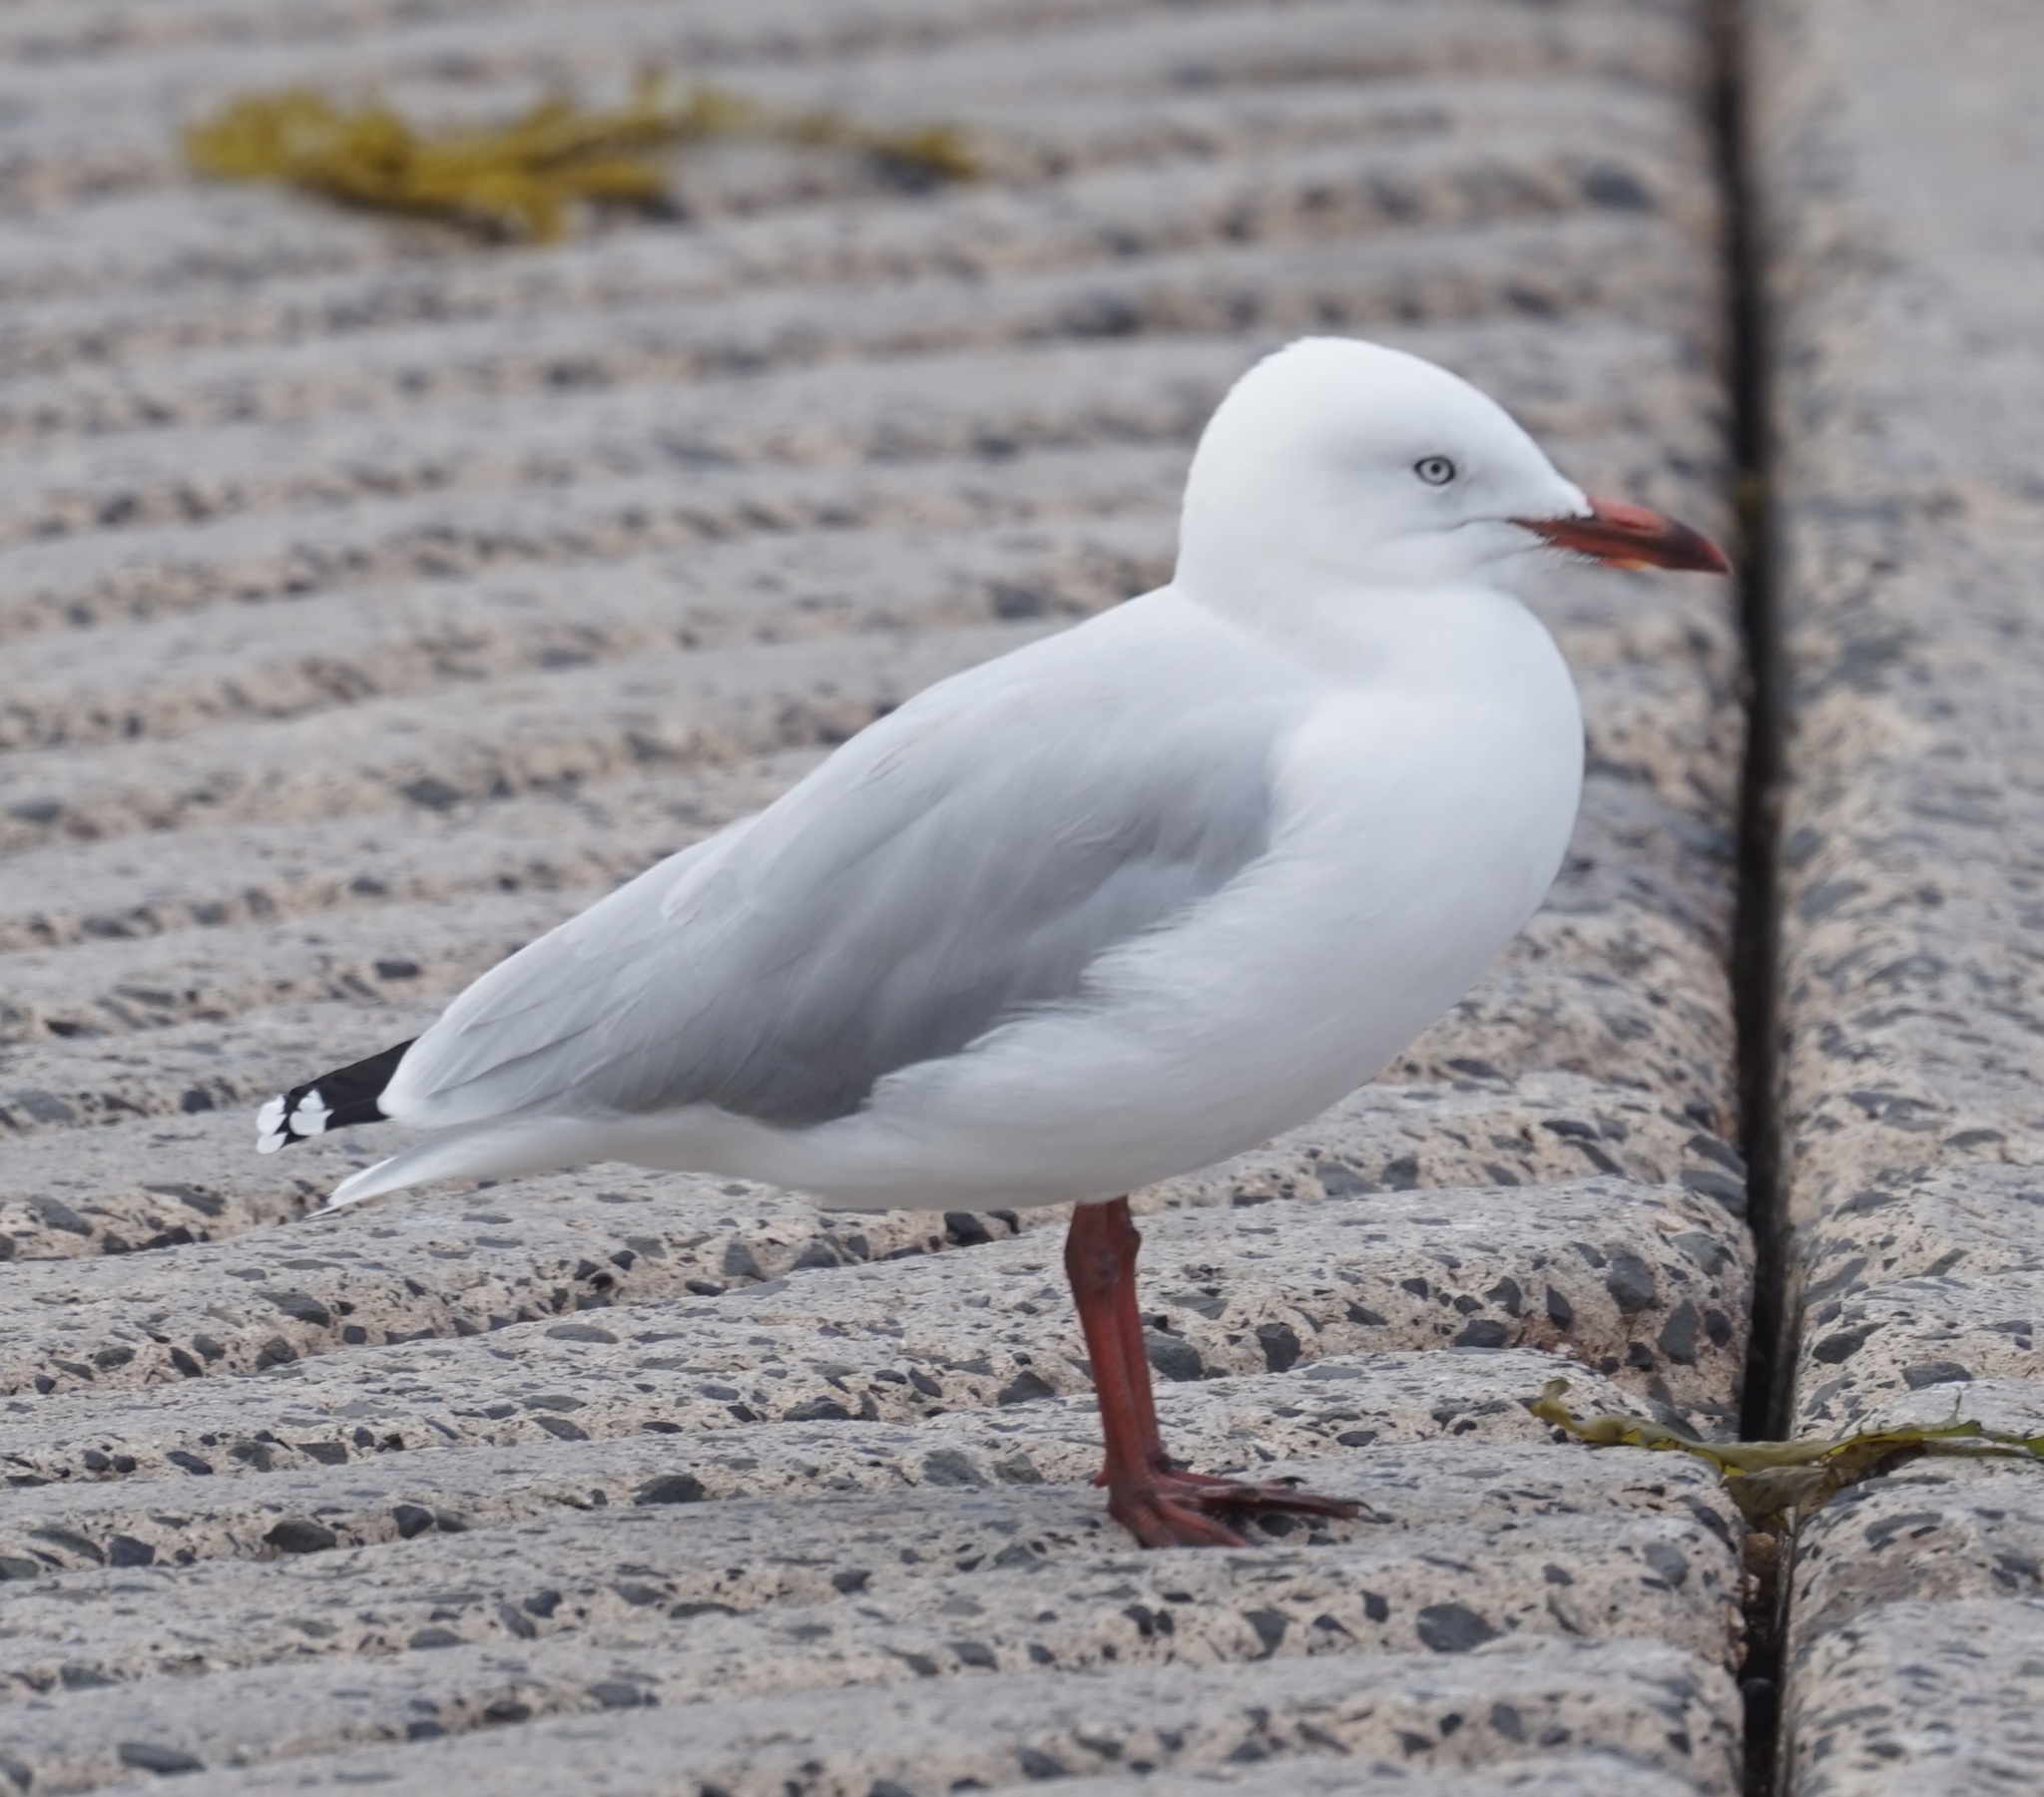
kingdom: Animalia
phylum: Chordata
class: Aves
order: Charadriiformes
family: Laridae
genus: Chroicocephalus
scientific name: Chroicocephalus novaehollandiae
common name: Silver gull
